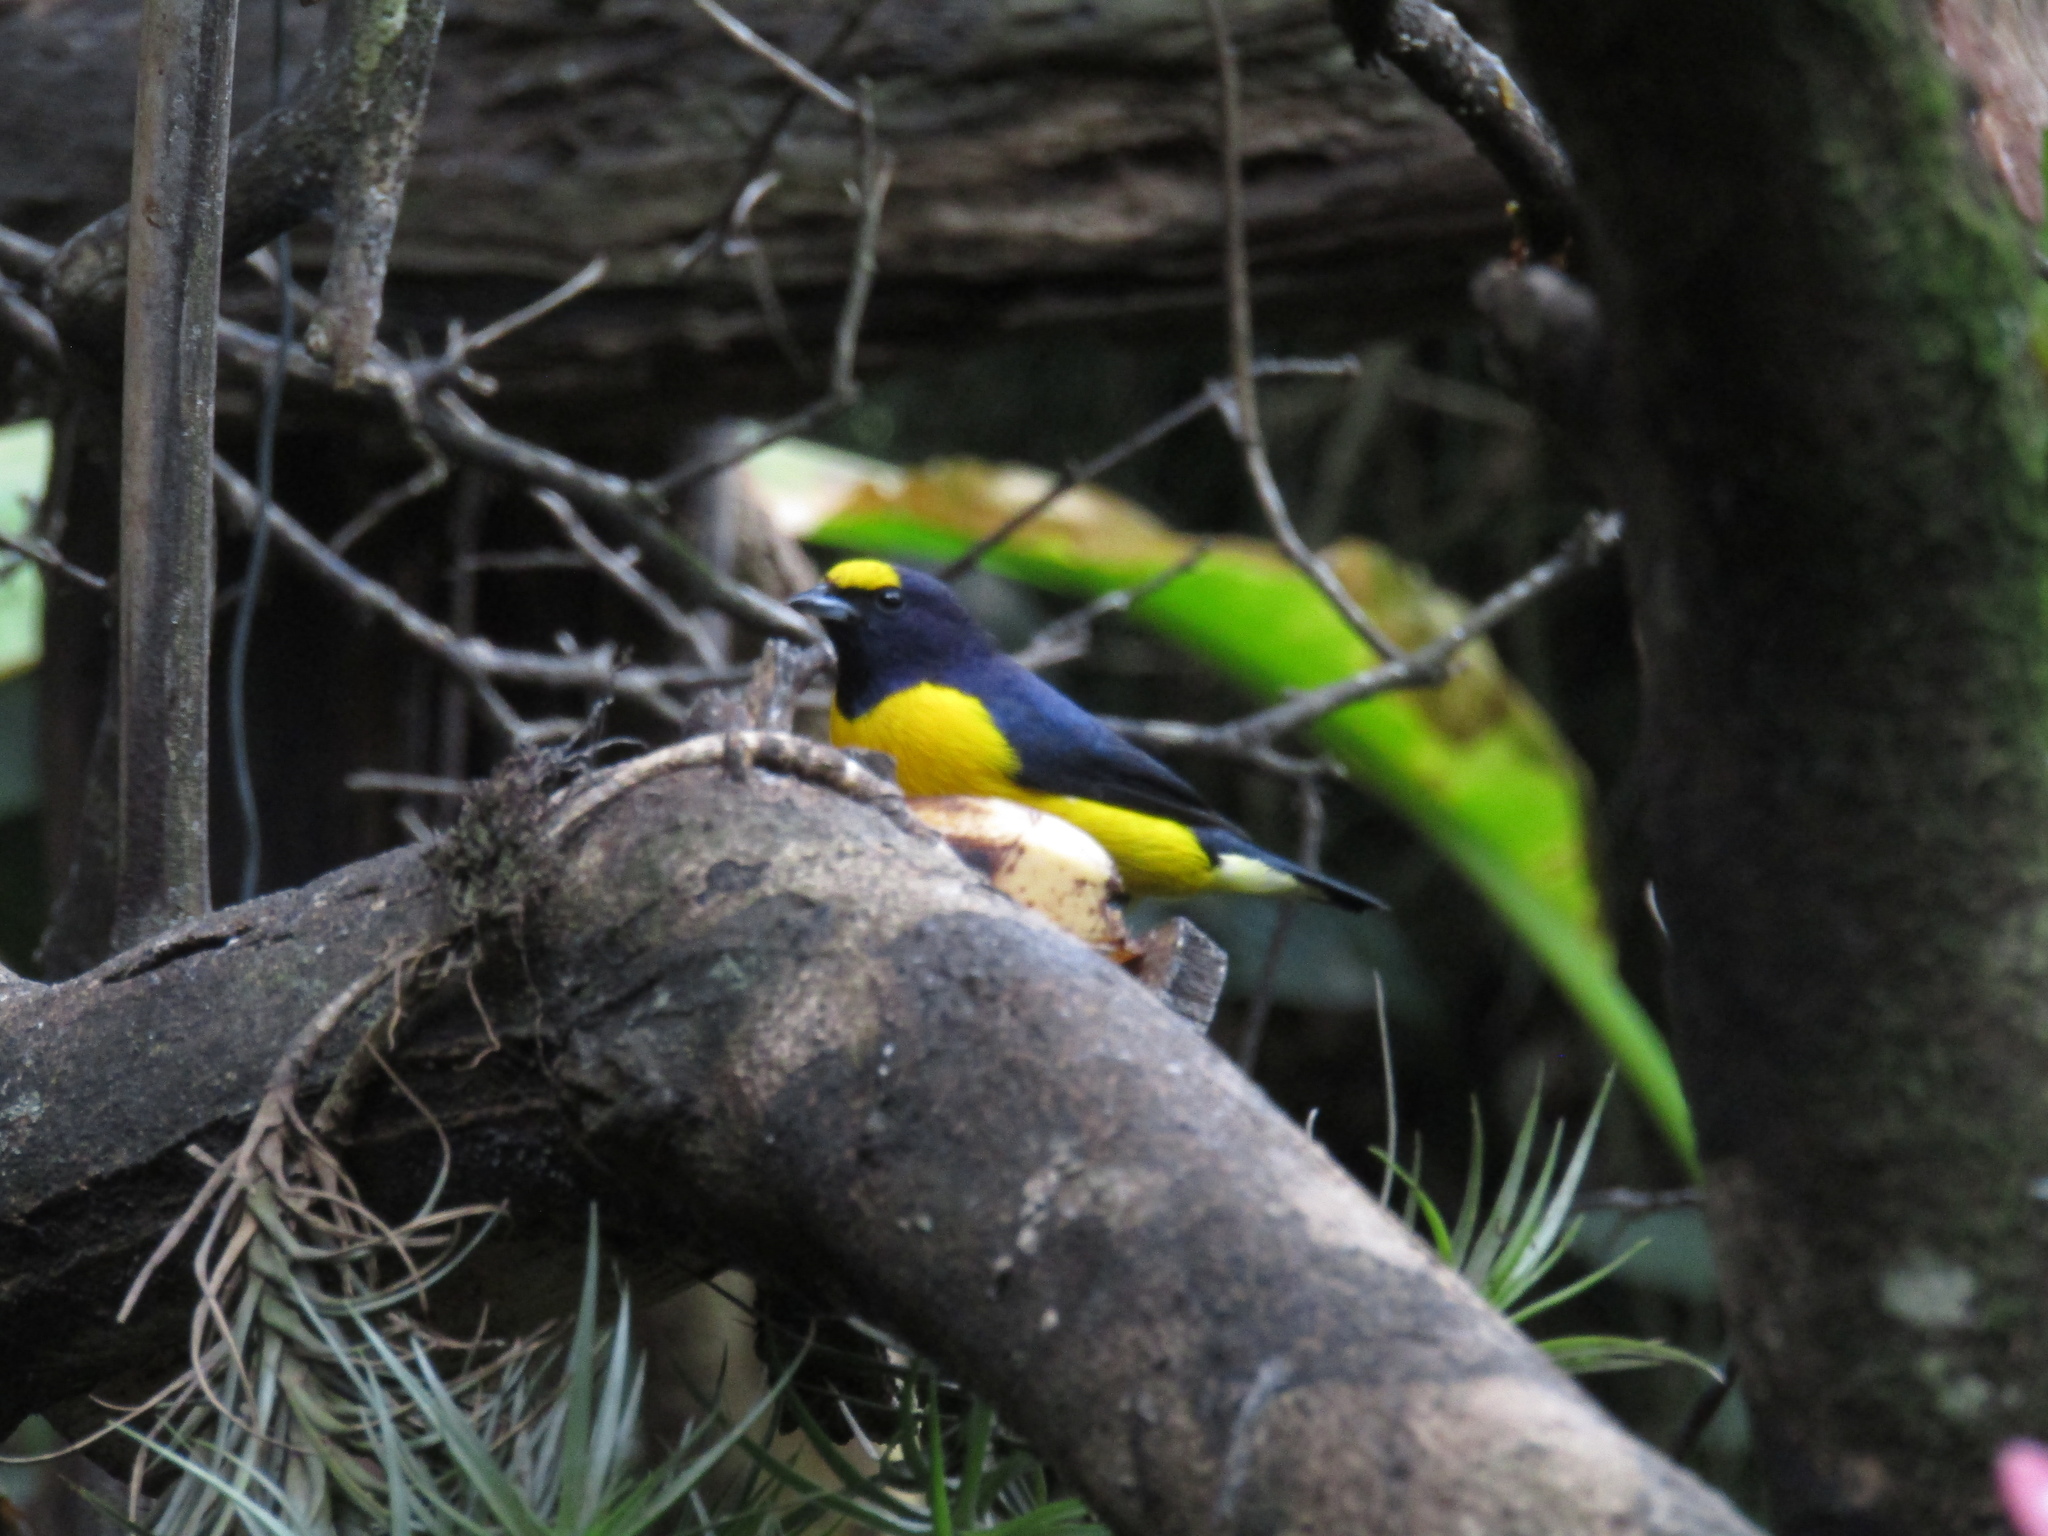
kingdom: Animalia
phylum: Chordata
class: Aves
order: Passeriformes
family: Fringillidae
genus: Euphonia
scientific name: Euphonia chlorotica
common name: Purple-throated euphonia
